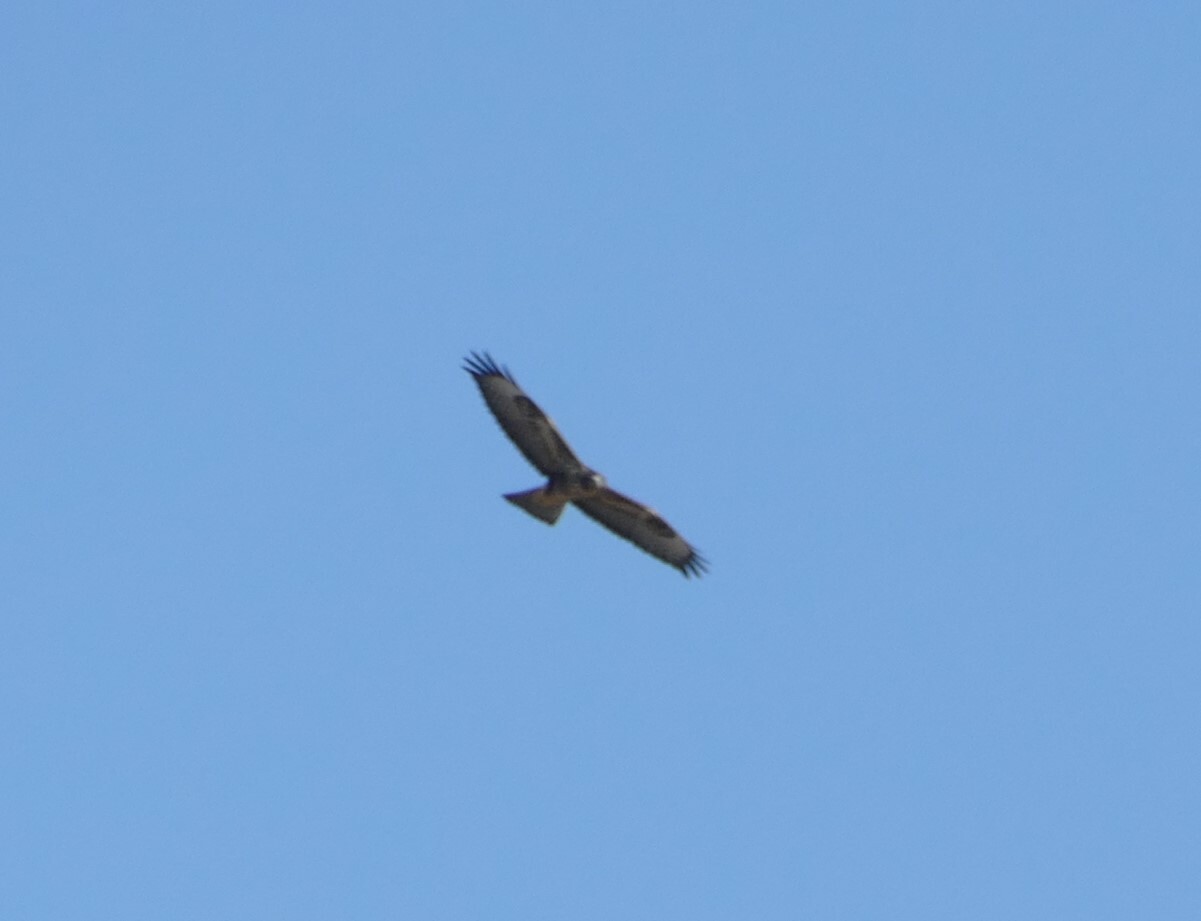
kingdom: Animalia
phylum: Chordata
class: Aves
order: Accipitriformes
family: Accipitridae
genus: Buteo
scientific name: Buteo buteo
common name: Common buzzard
